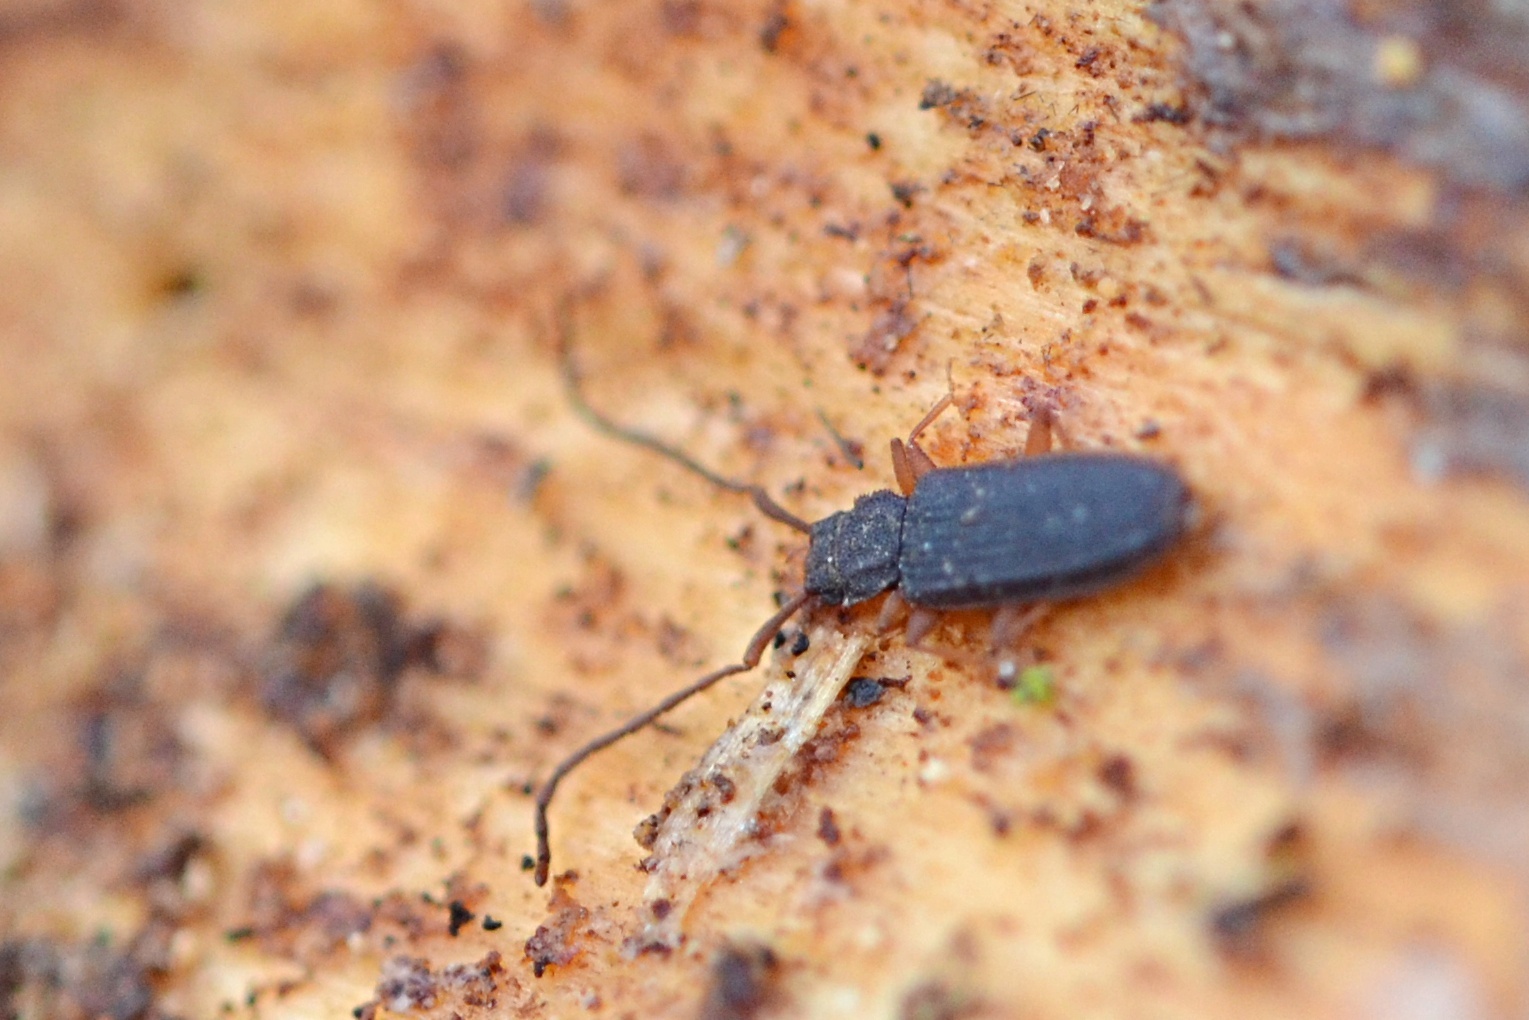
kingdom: Animalia
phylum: Arthropoda
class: Insecta
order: Coleoptera
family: Silvanidae
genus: Uleiota
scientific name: Uleiota planatus
